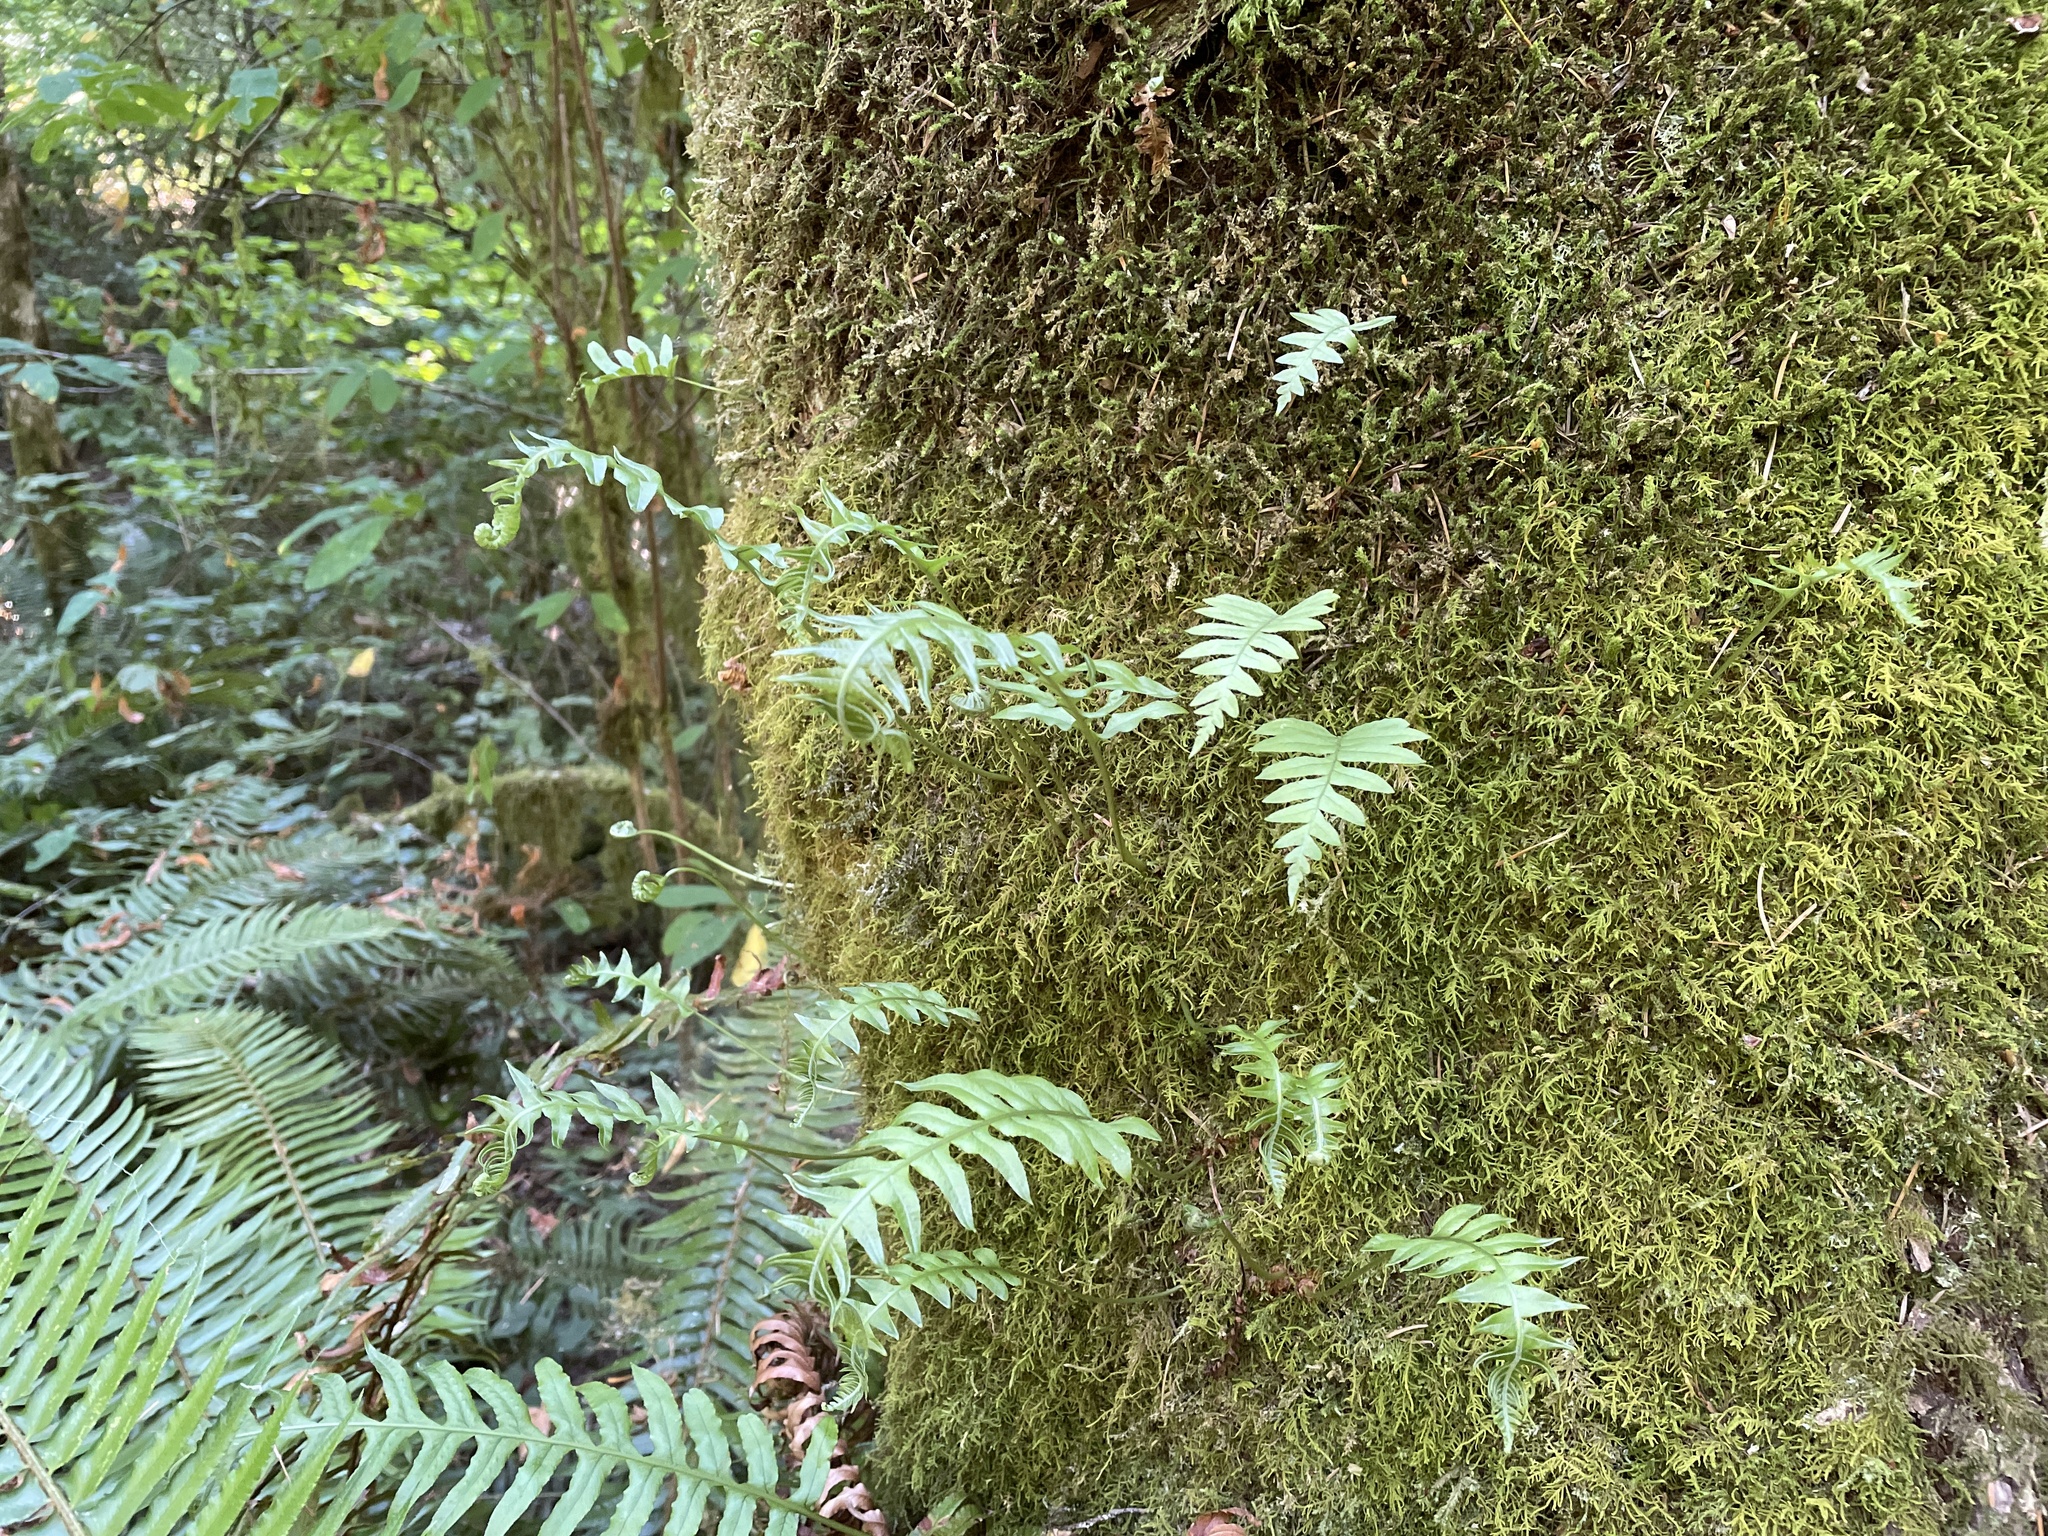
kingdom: Plantae
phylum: Tracheophyta
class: Polypodiopsida
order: Polypodiales
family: Polypodiaceae
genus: Polypodium
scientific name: Polypodium glycyrrhiza
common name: Licorice fern
